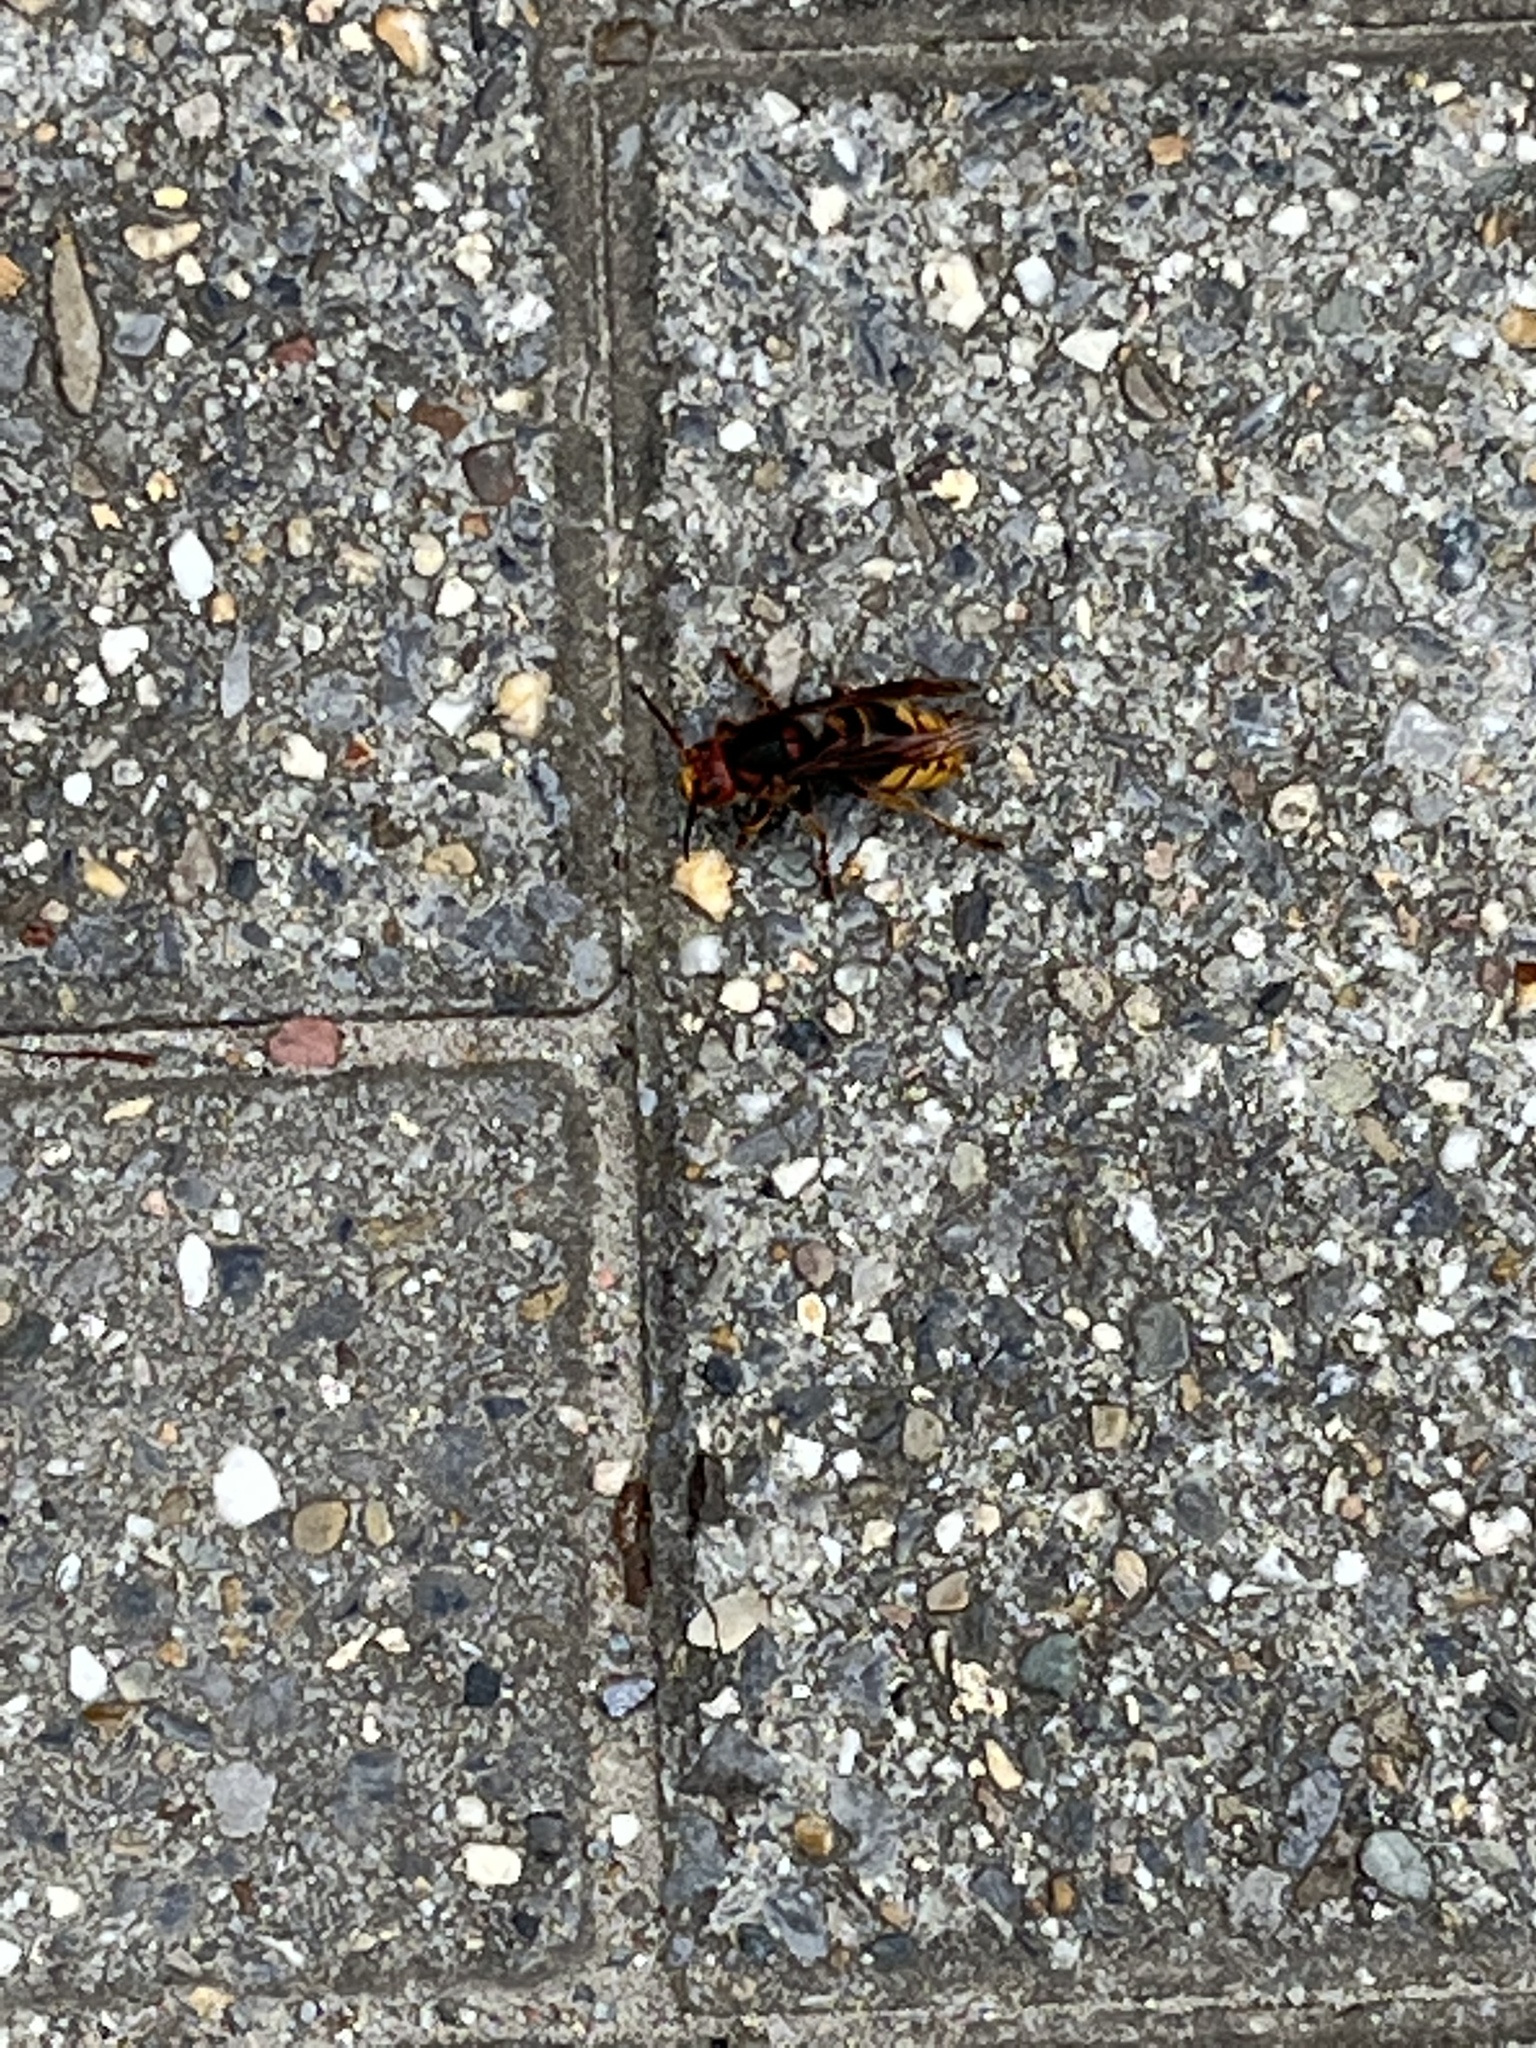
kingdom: Animalia
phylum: Arthropoda
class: Insecta
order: Hymenoptera
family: Vespidae
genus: Vespa
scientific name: Vespa crabro
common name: Hornet
